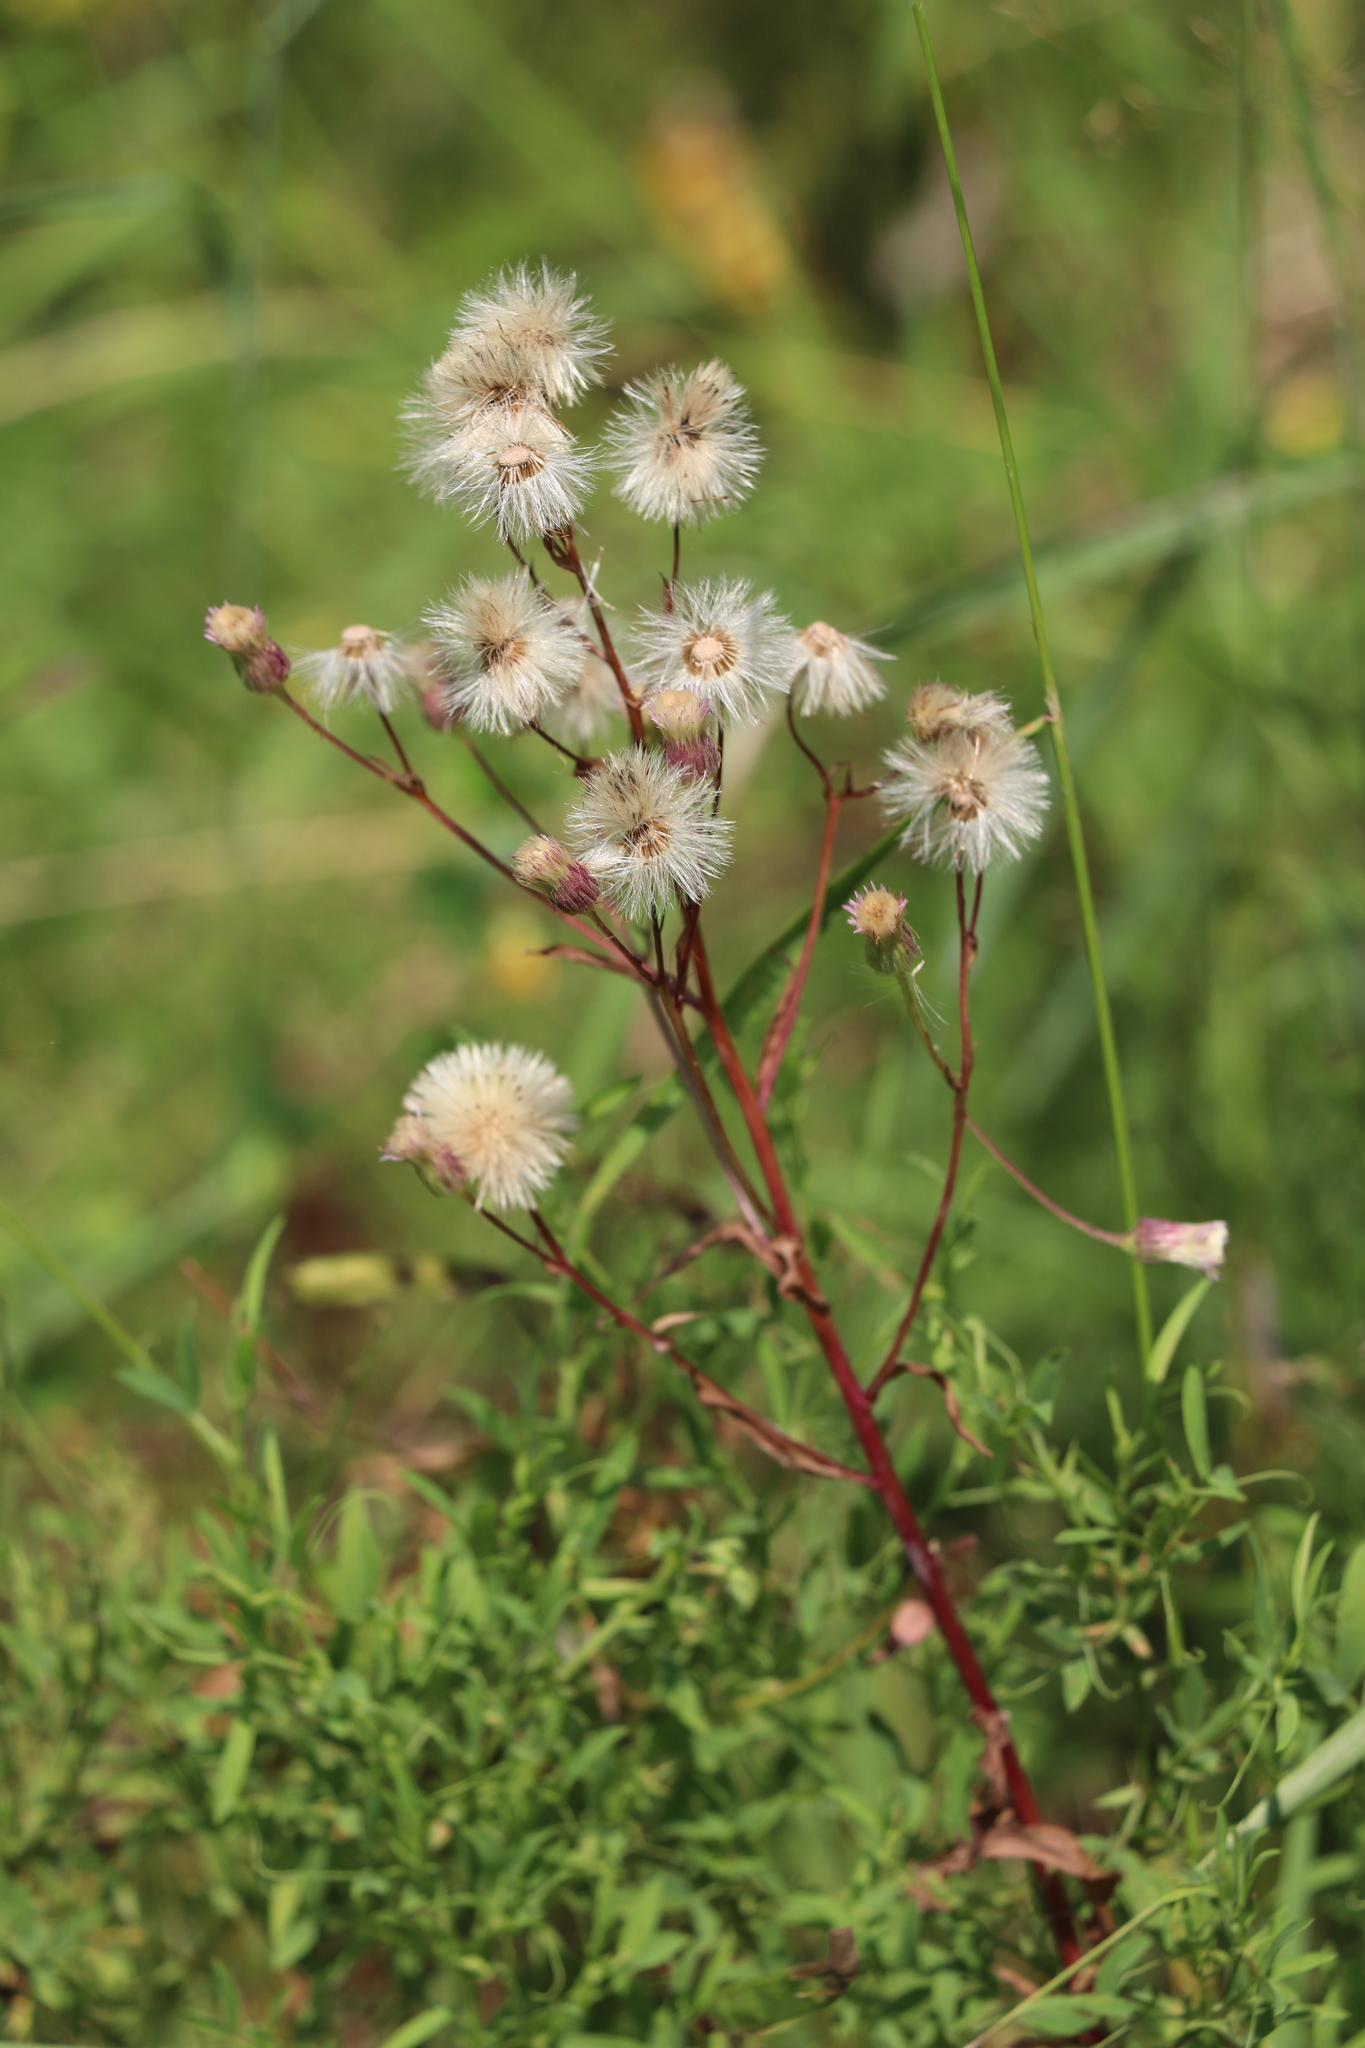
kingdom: Plantae
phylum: Tracheophyta
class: Magnoliopsida
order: Asterales
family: Asteraceae
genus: Erigeron
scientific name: Erigeron acris
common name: Blue fleabane
